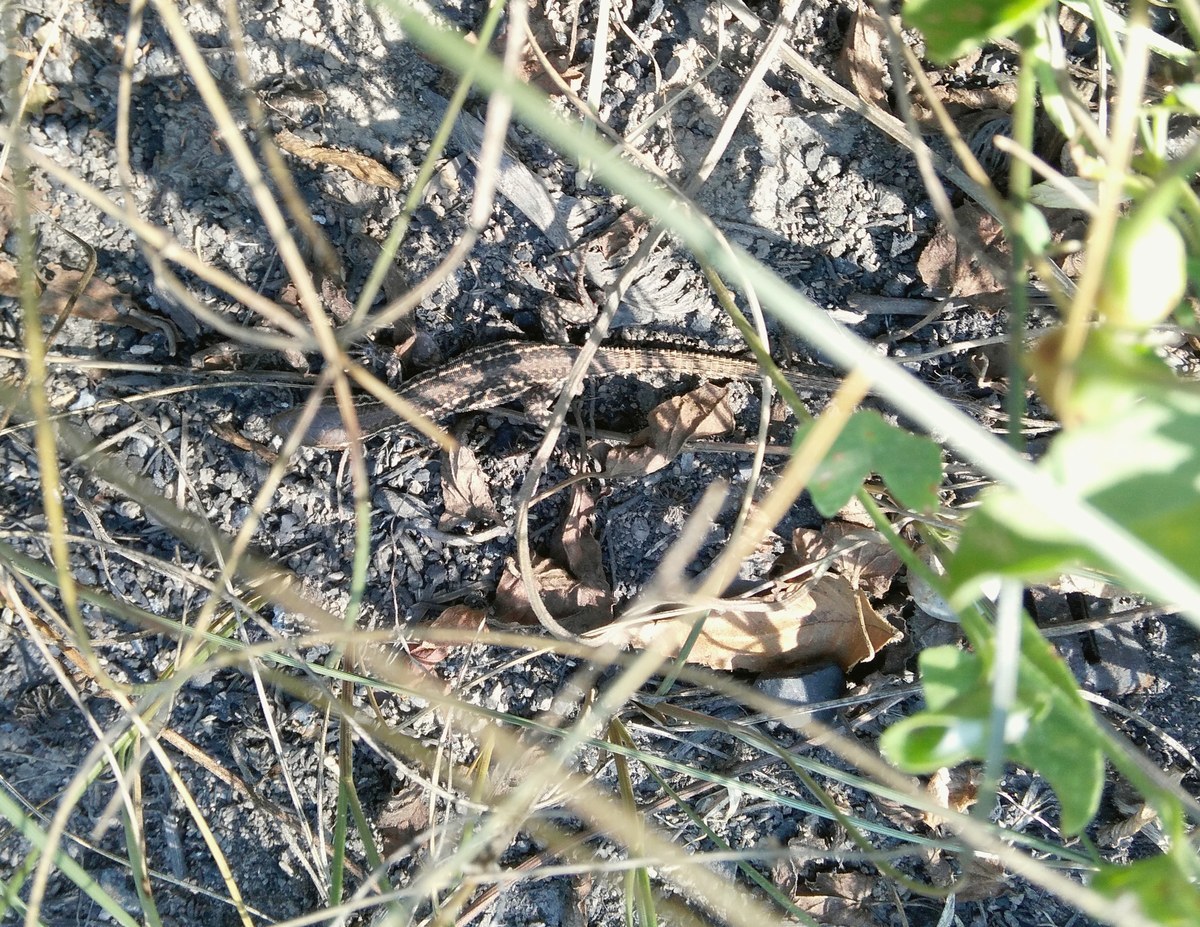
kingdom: Animalia
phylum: Chordata
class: Squamata
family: Lacertidae
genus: Podarcis
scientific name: Podarcis tauricus
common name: Balkan wall lizard
